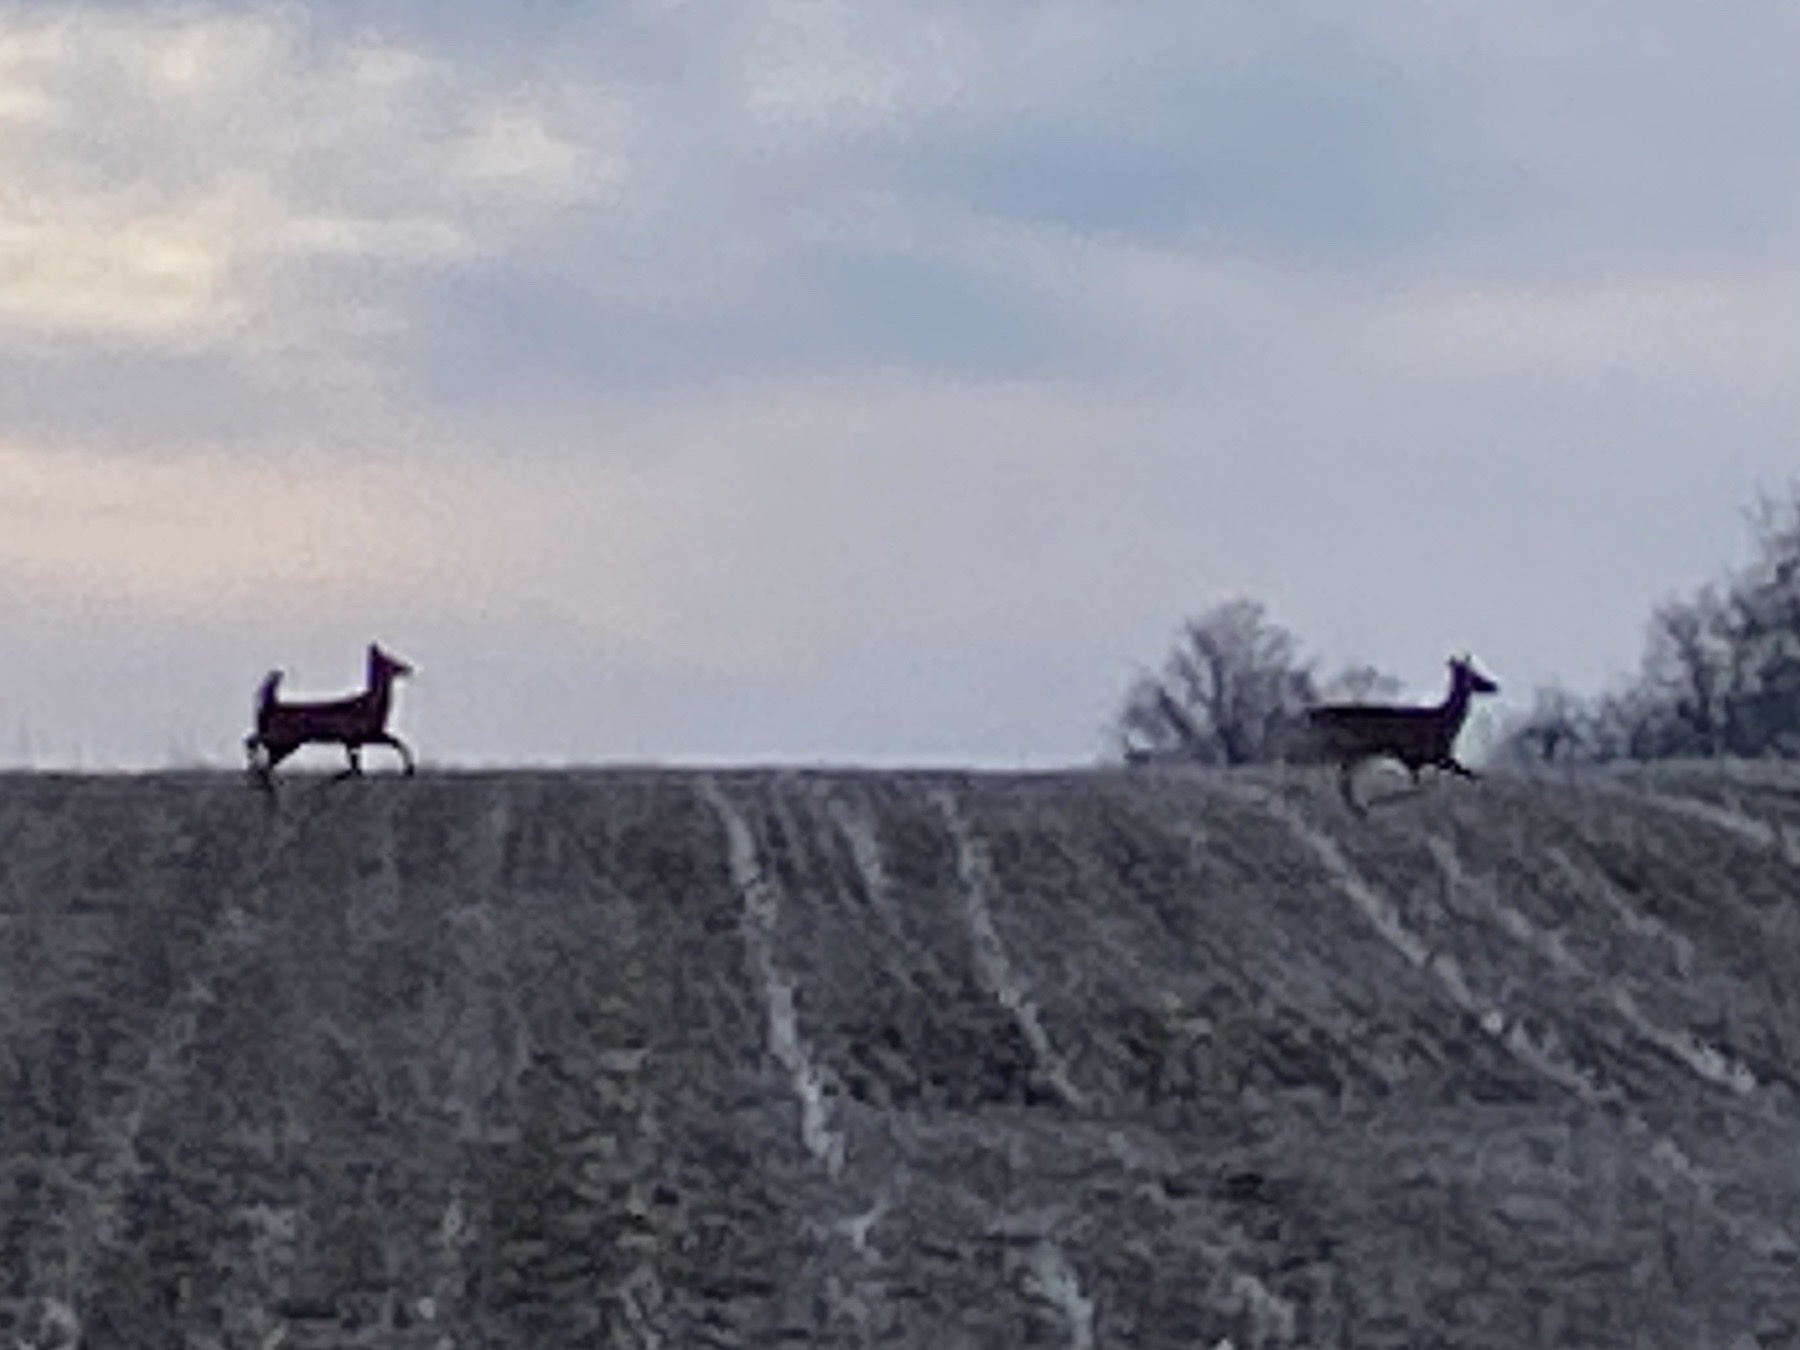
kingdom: Animalia
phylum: Chordata
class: Mammalia
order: Artiodactyla
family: Cervidae
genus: Odocoileus
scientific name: Odocoileus virginianus
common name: White-tailed deer
